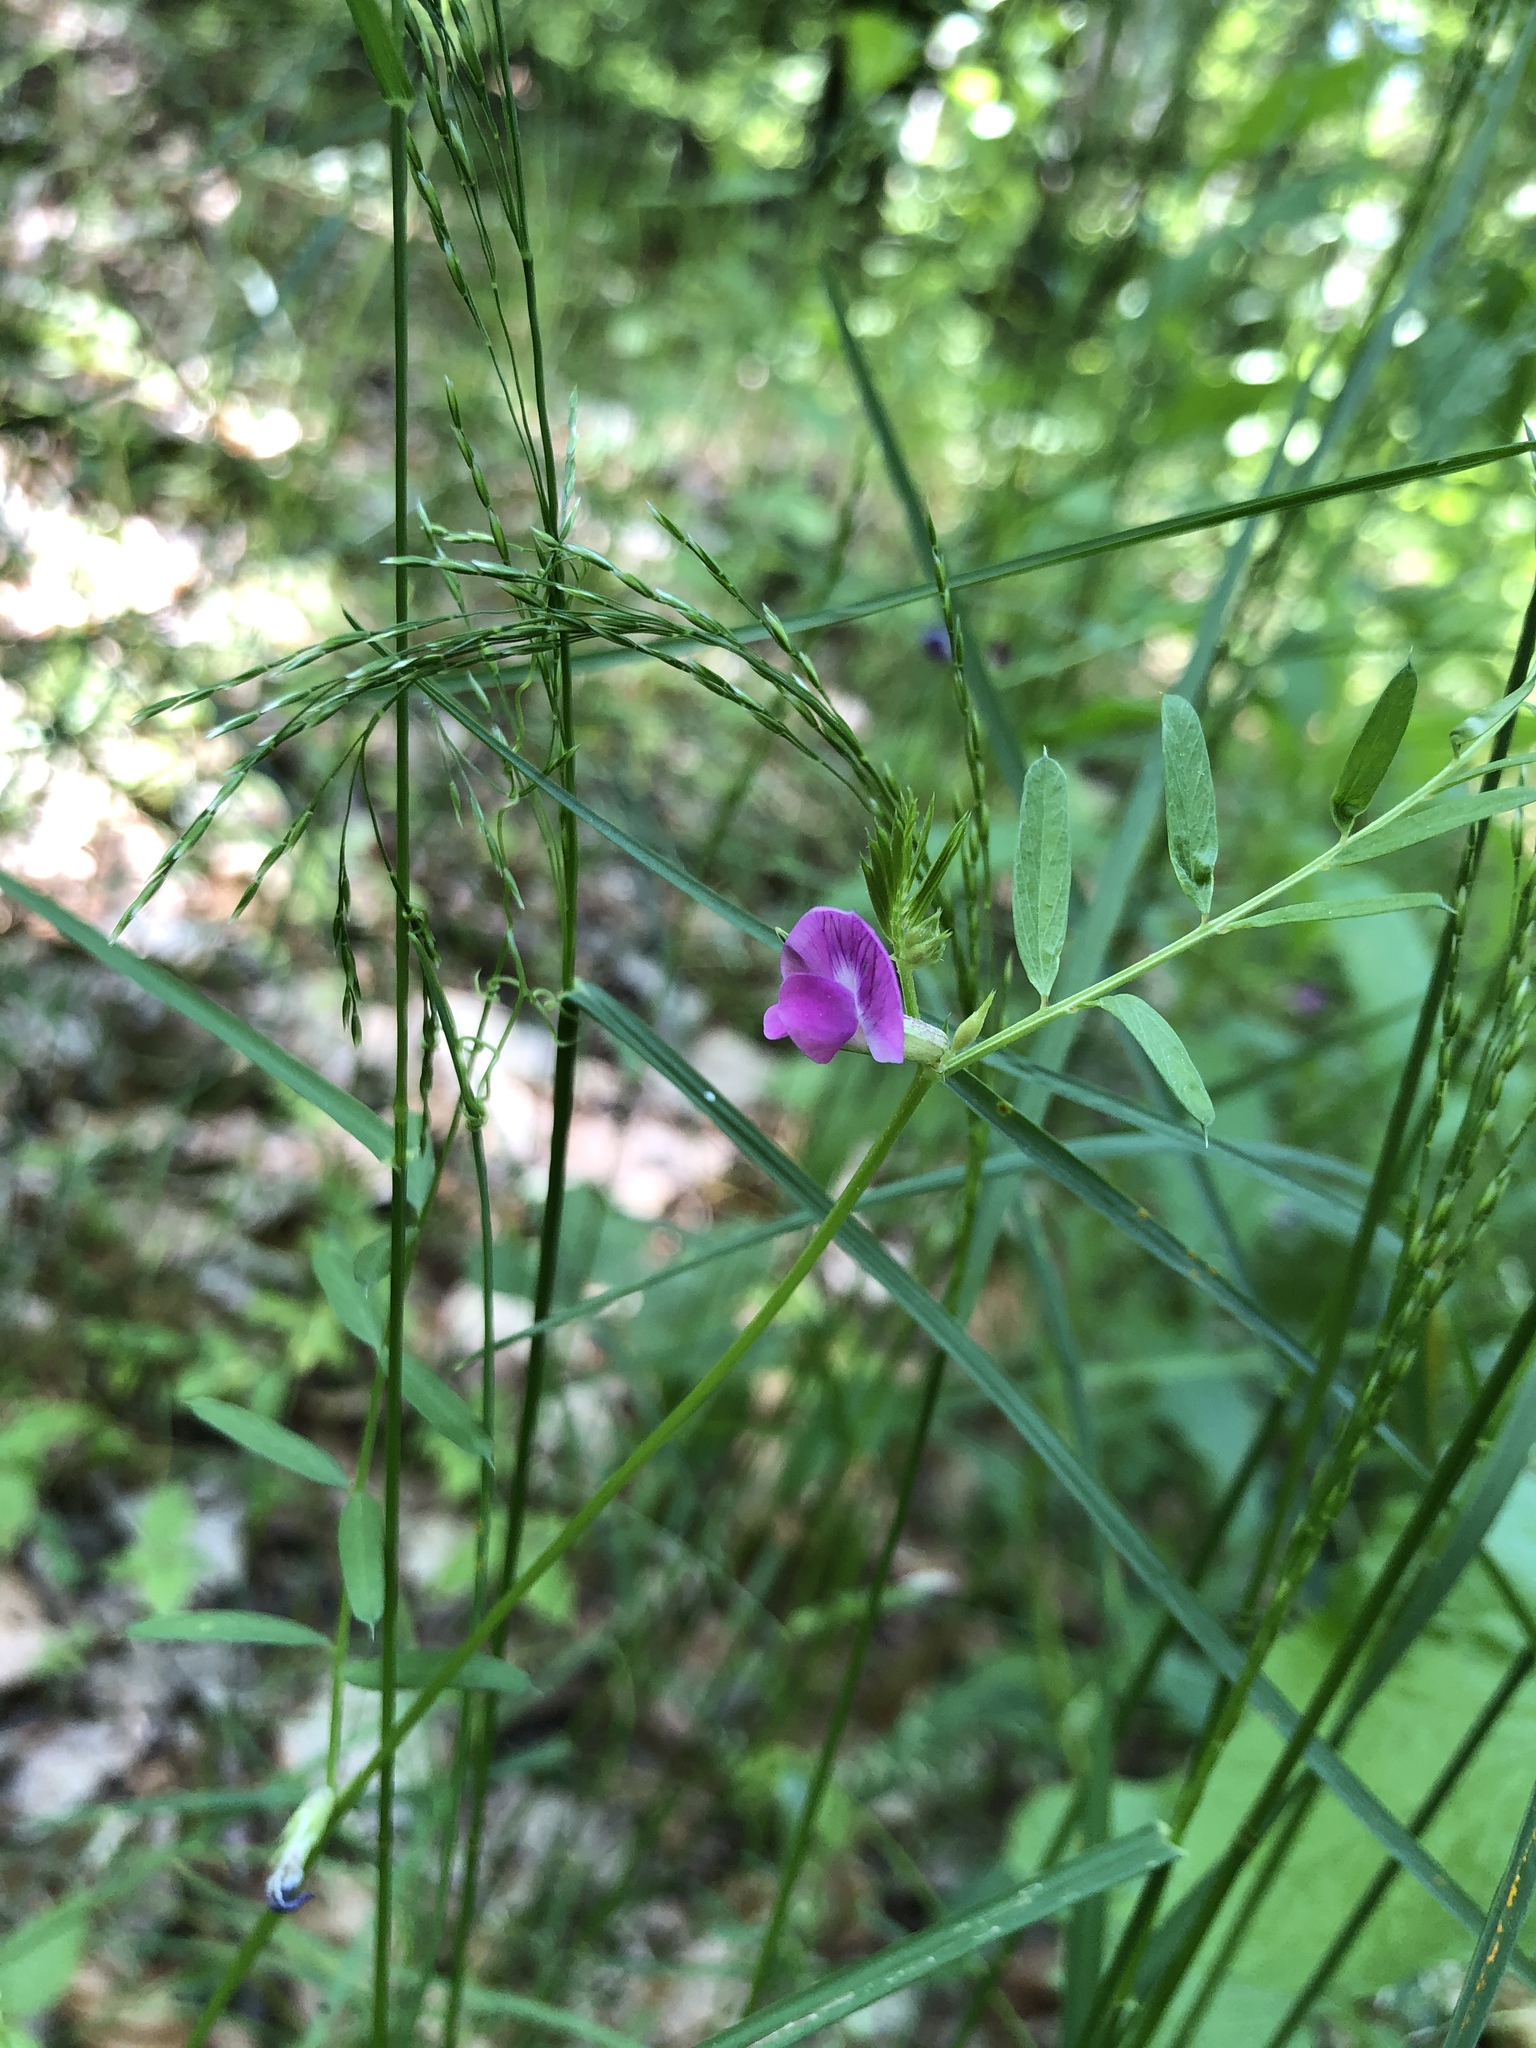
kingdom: Plantae
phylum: Tracheophyta
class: Magnoliopsida
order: Fabales
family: Fabaceae
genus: Vicia
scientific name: Vicia sativa
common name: Garden vetch
